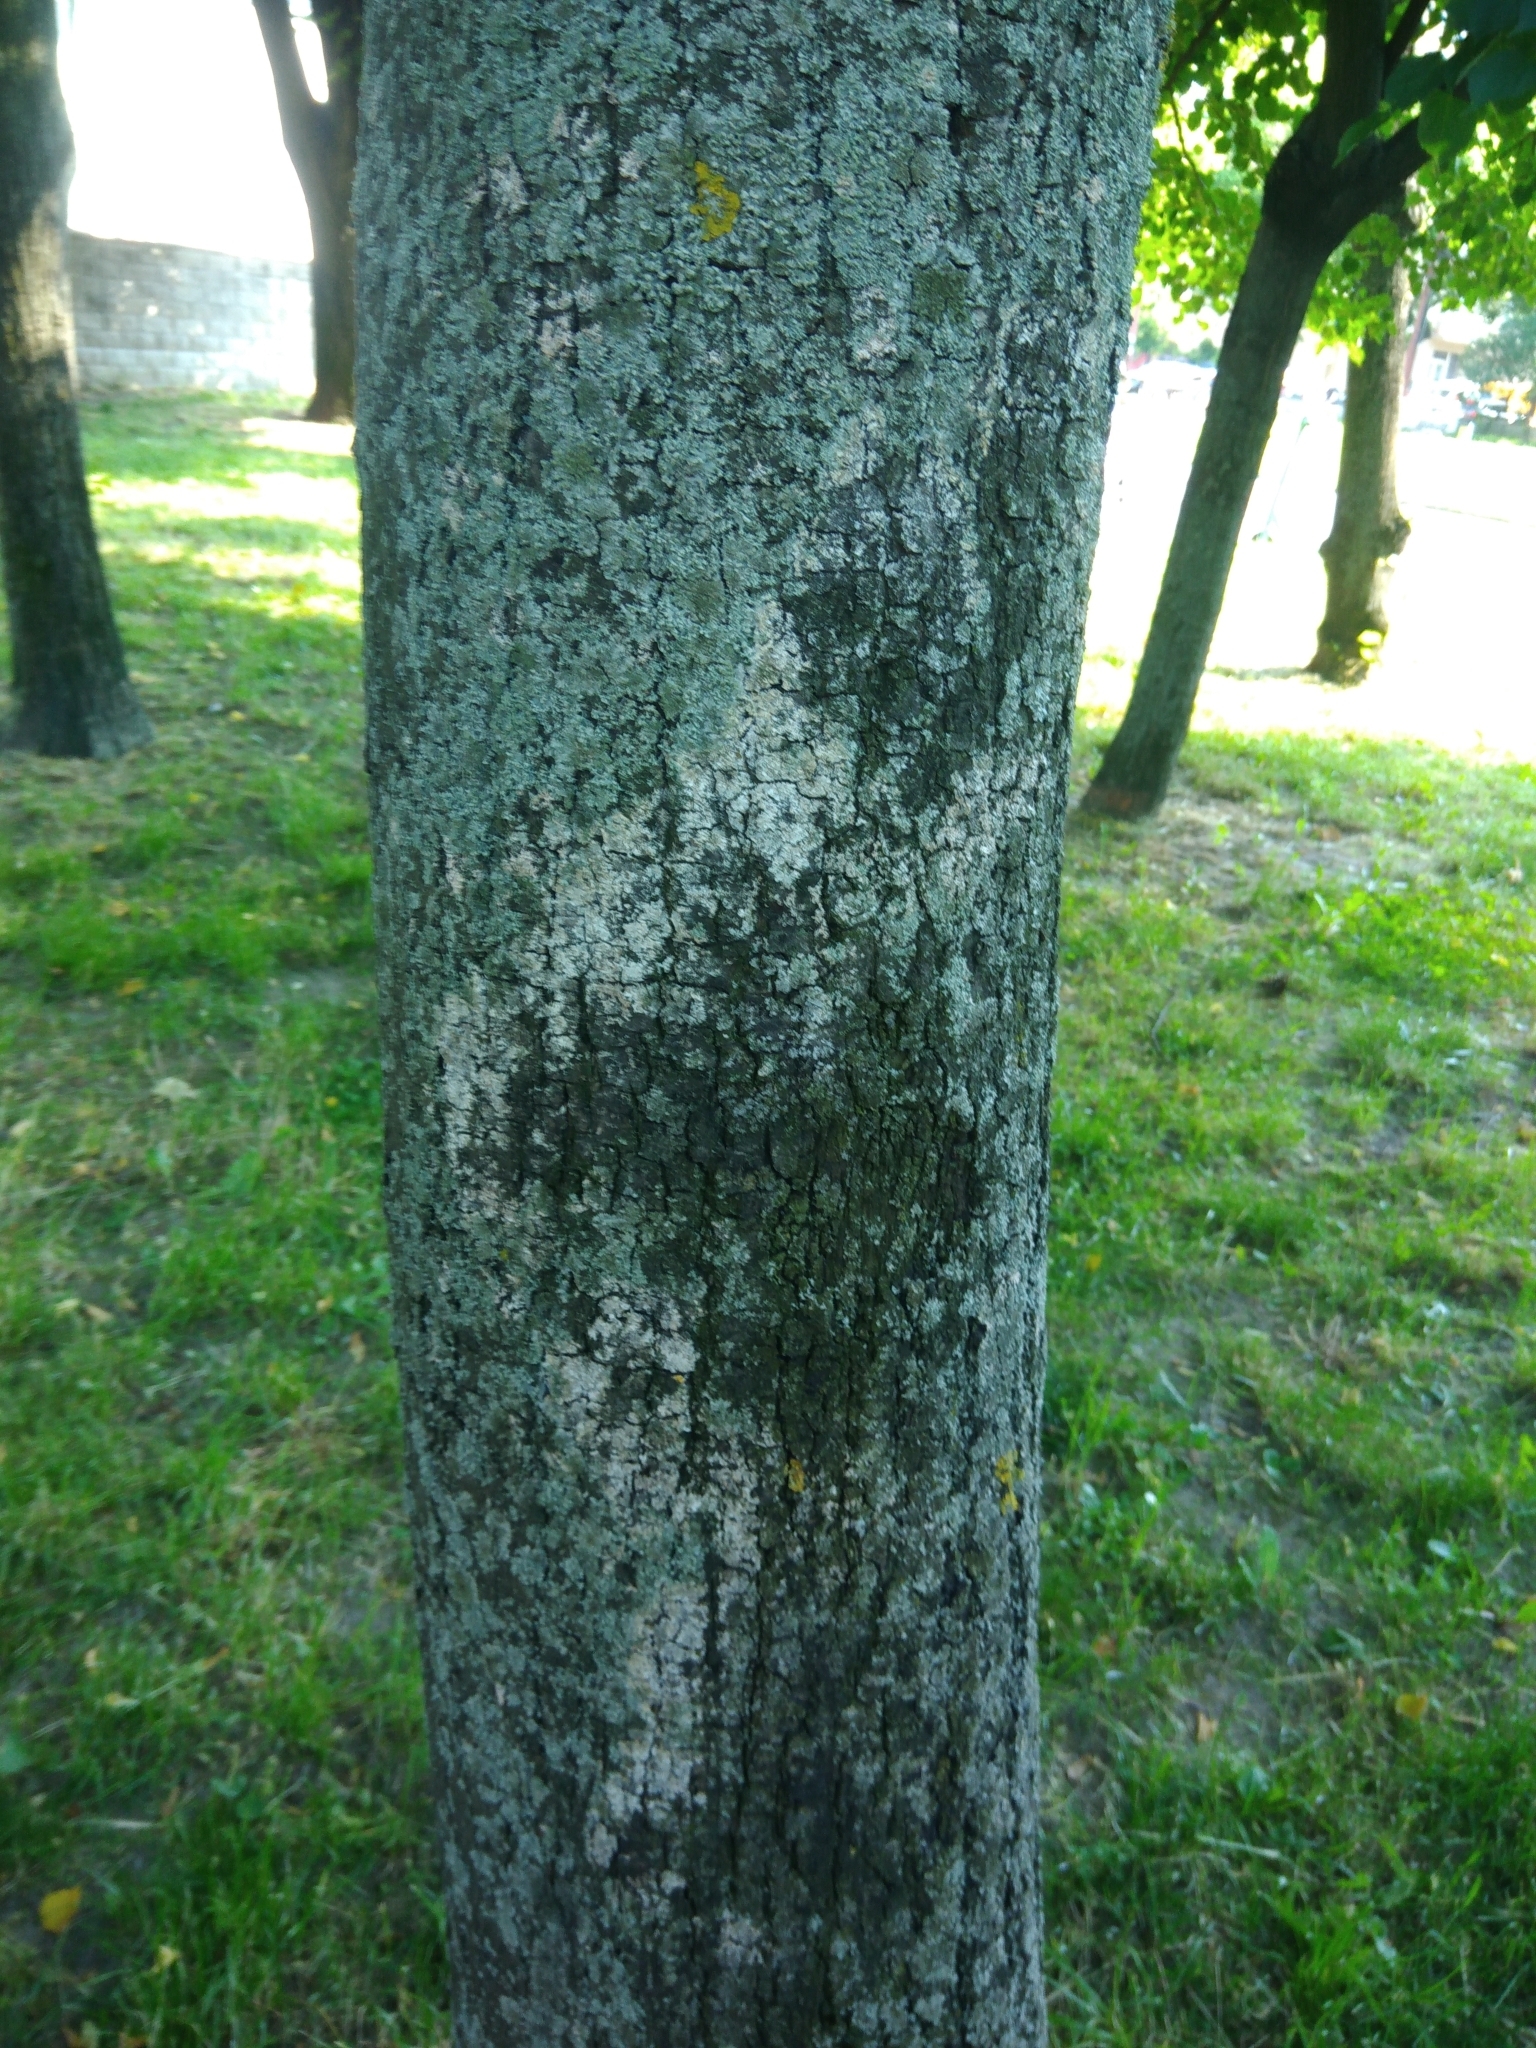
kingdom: Fungi
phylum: Basidiomycota
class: Agaricomycetes
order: Atheliales
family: Atheliaceae
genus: Athelia
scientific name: Athelia arachnoidea
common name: Candelabra duster
